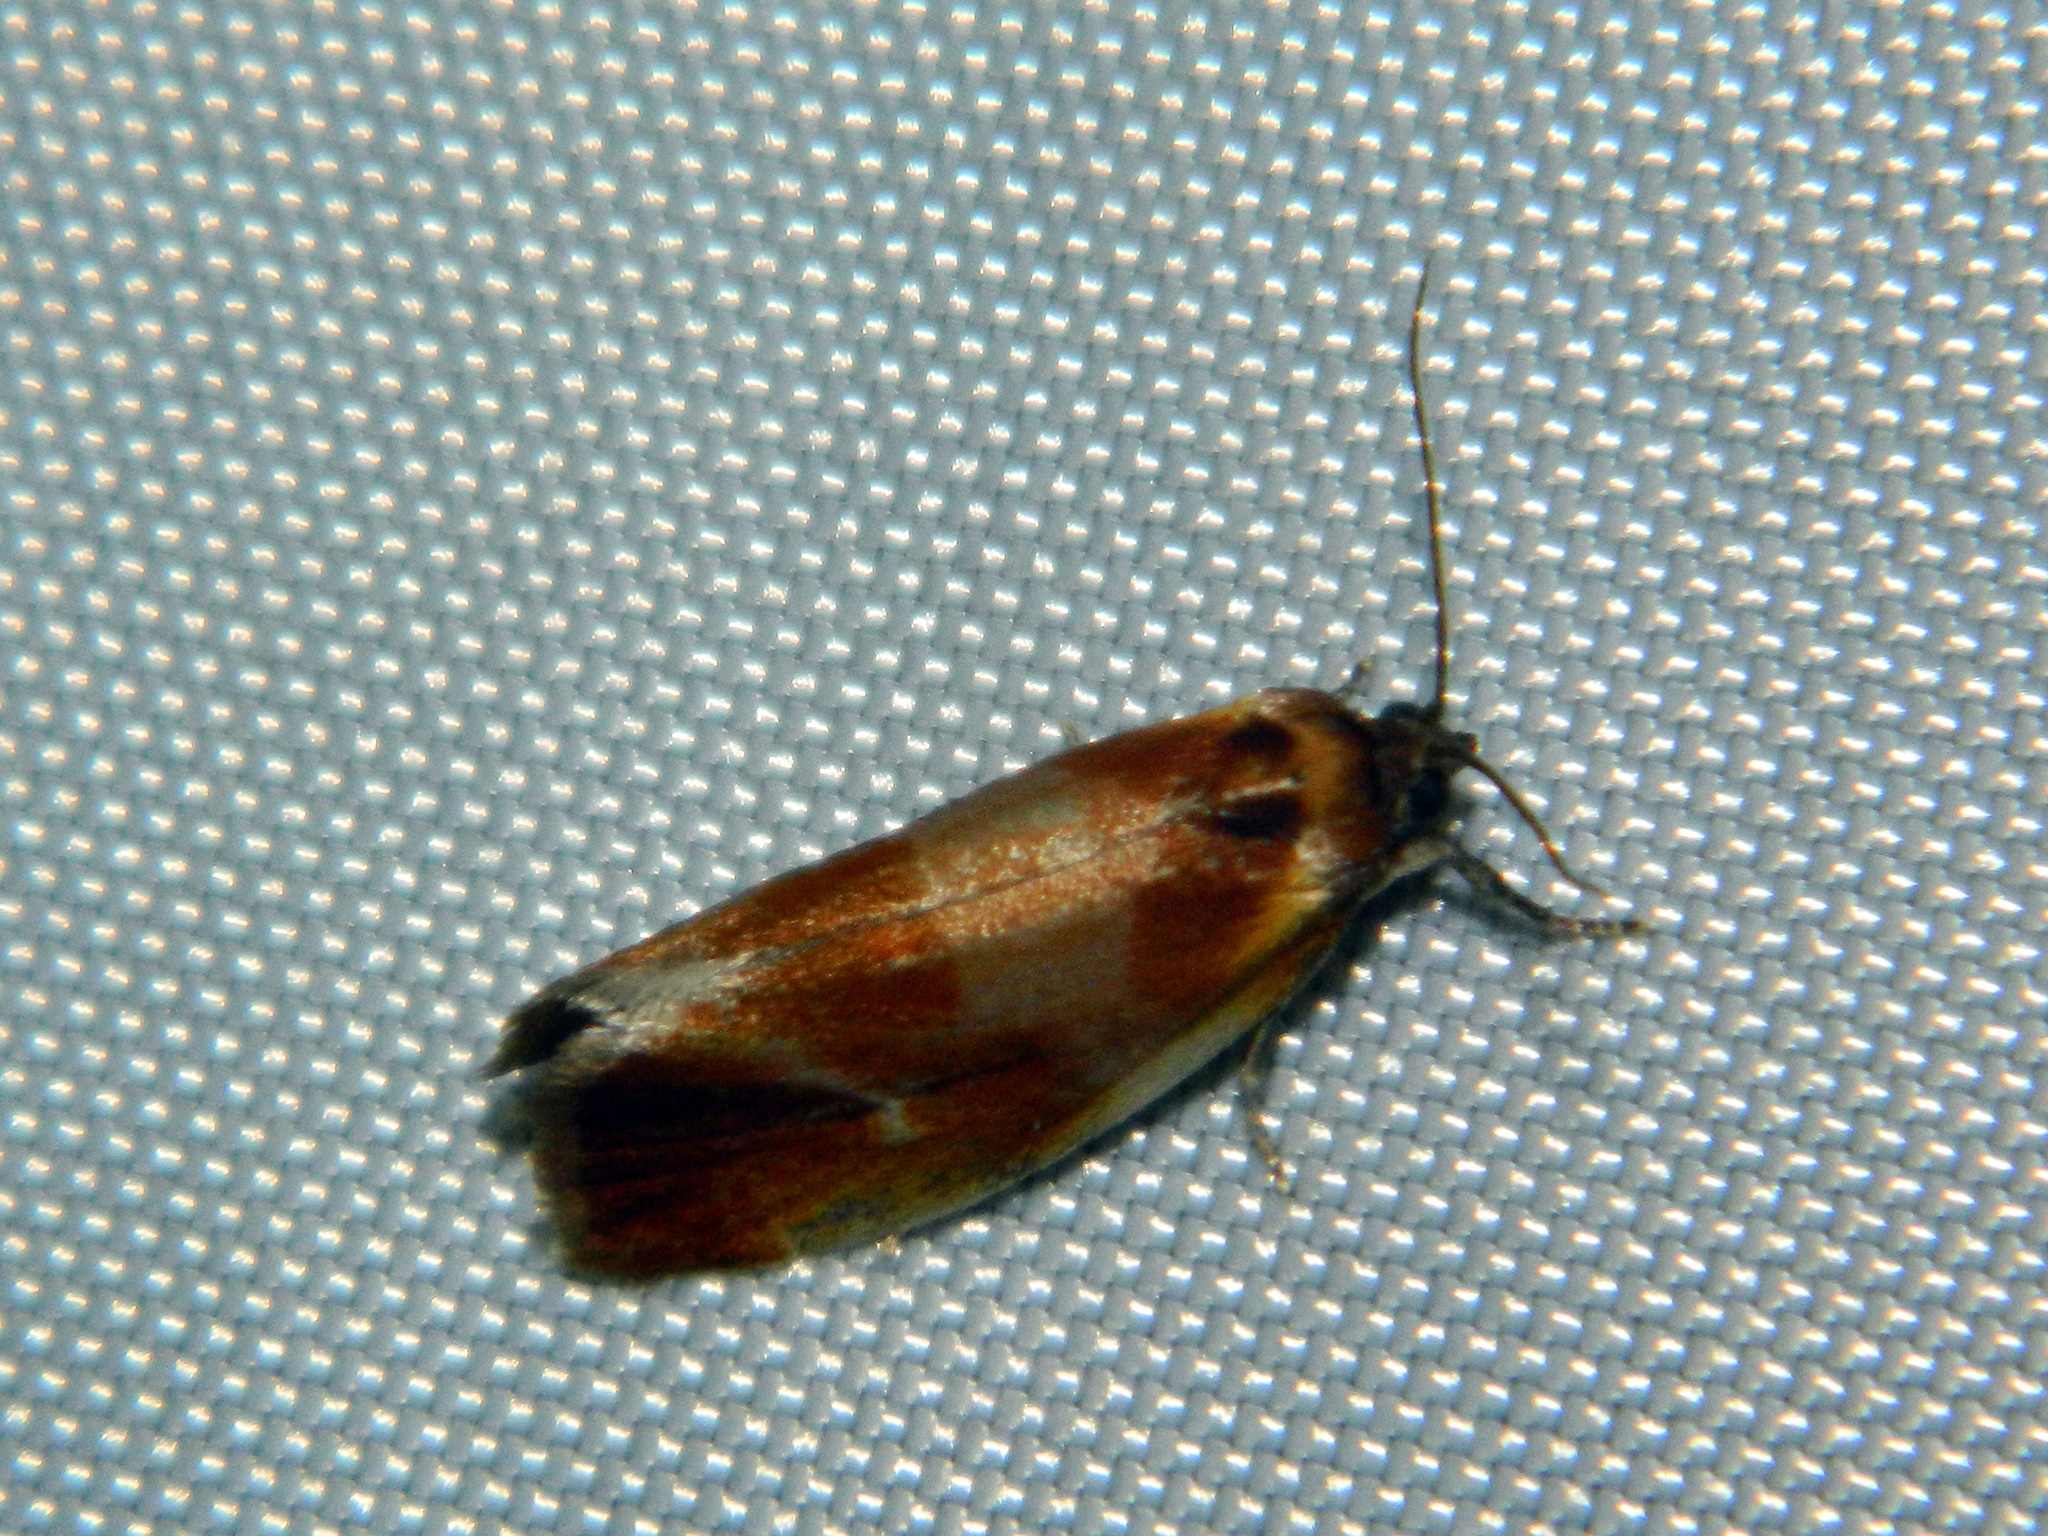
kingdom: Animalia
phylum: Arthropoda
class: Insecta
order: Lepidoptera
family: Tortricidae
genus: Eulia
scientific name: Eulia ministrana
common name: Brassy twist
